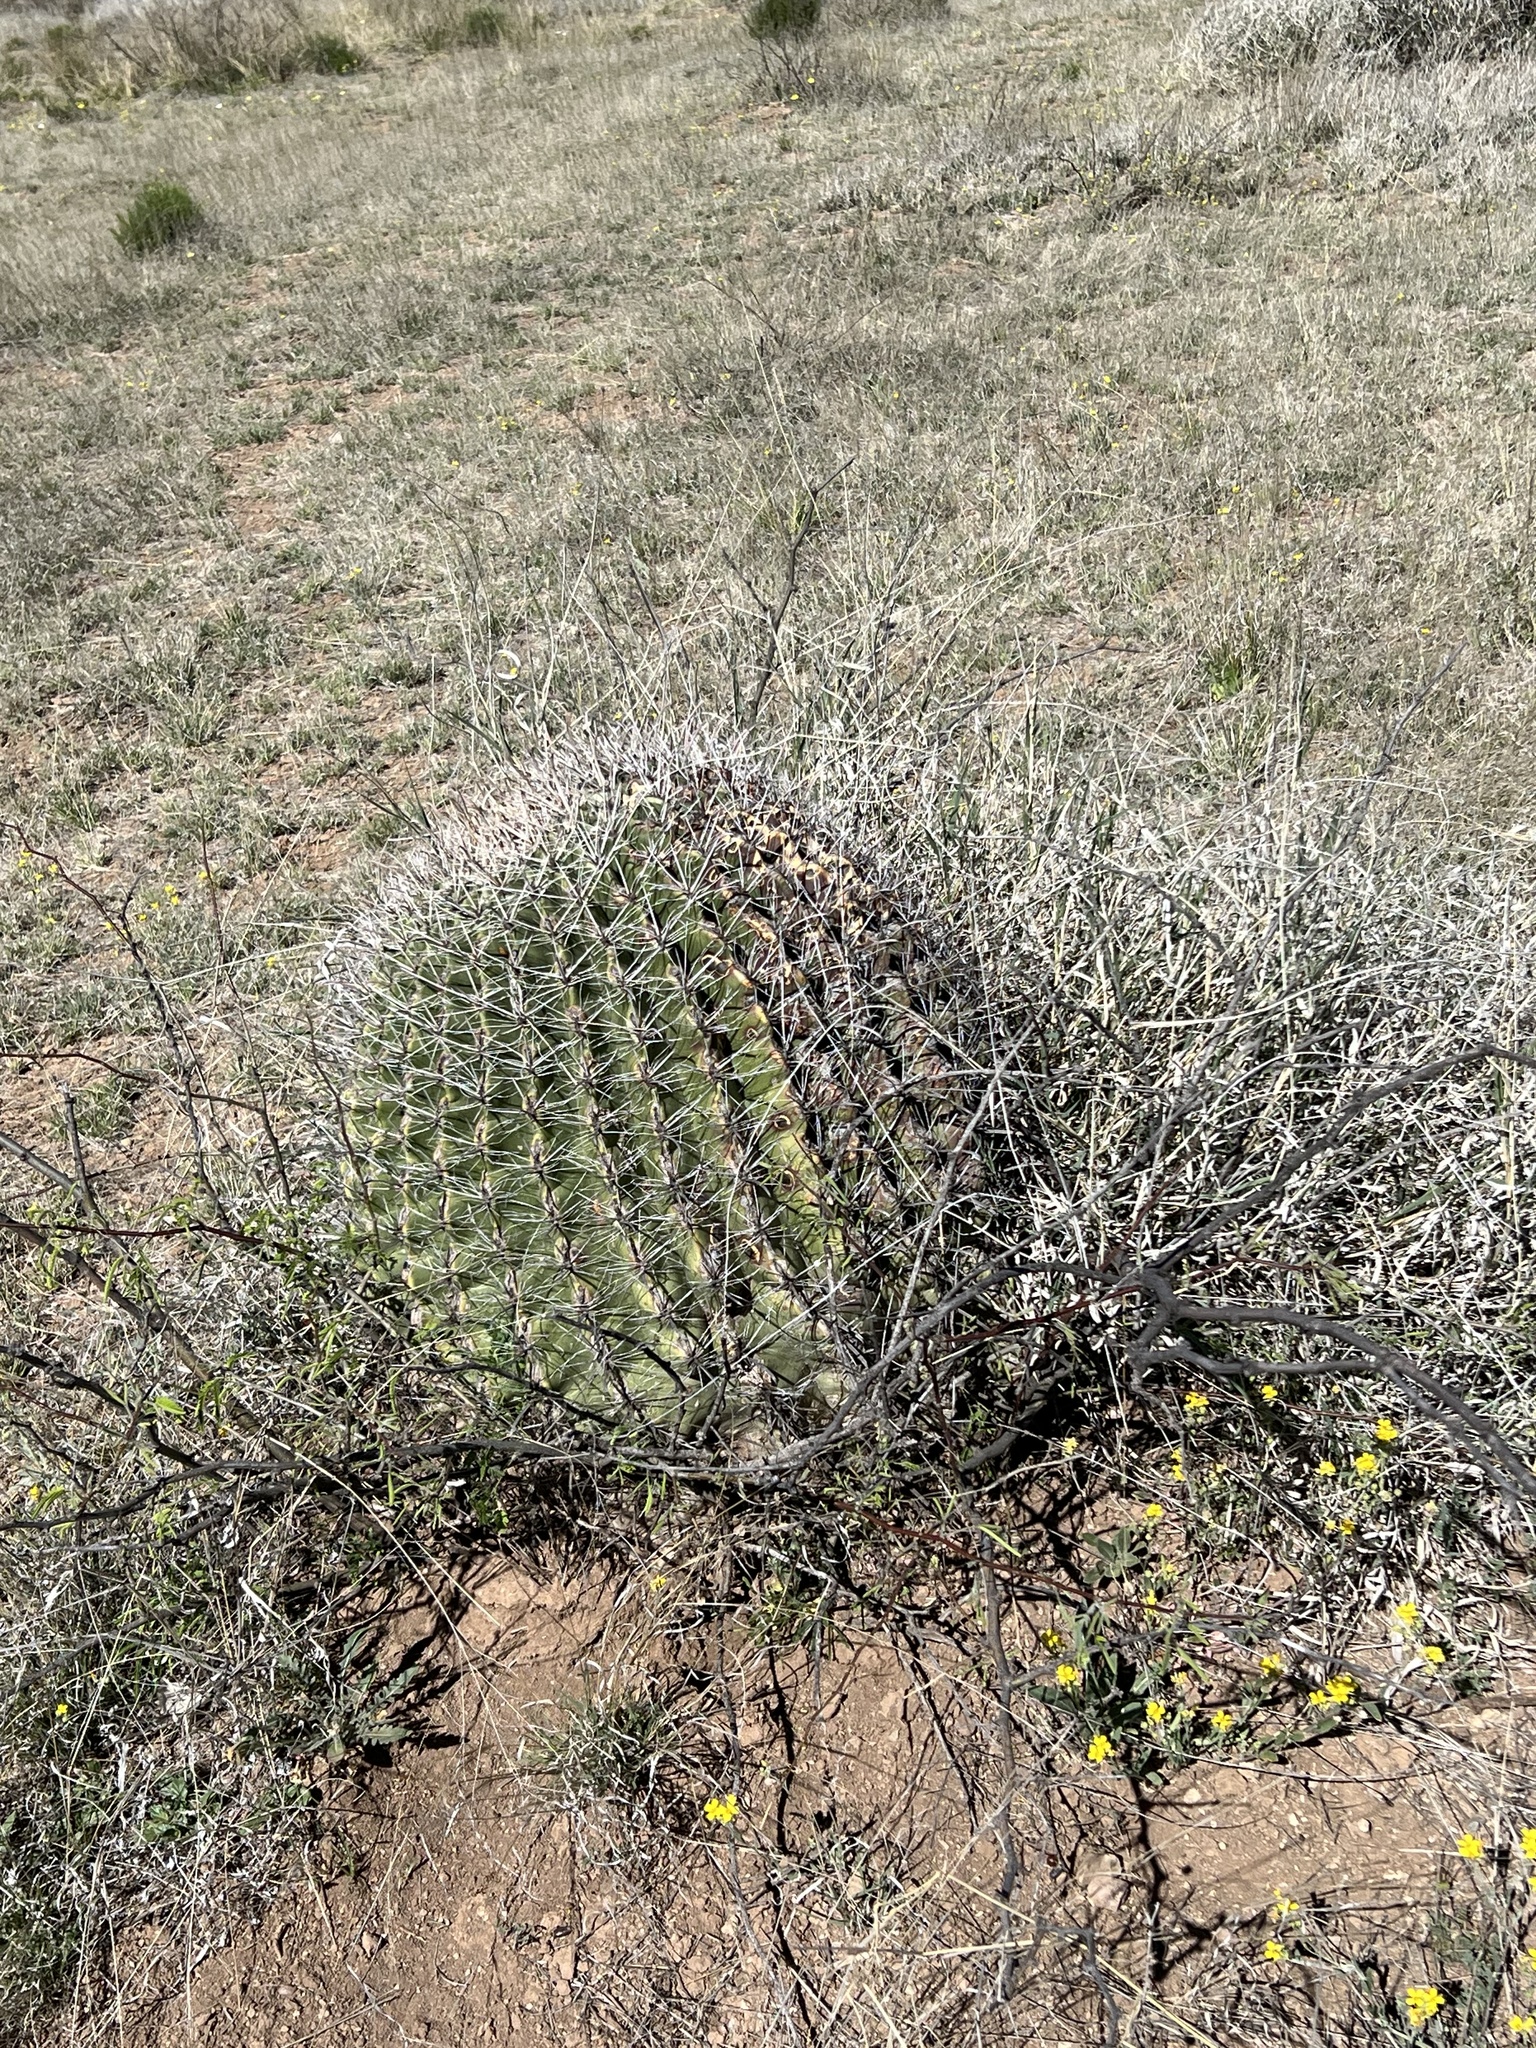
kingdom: Plantae
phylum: Tracheophyta
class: Magnoliopsida
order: Caryophyllales
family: Cactaceae
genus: Ferocactus
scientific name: Ferocactus wislizeni
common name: Candy barrel cactus
